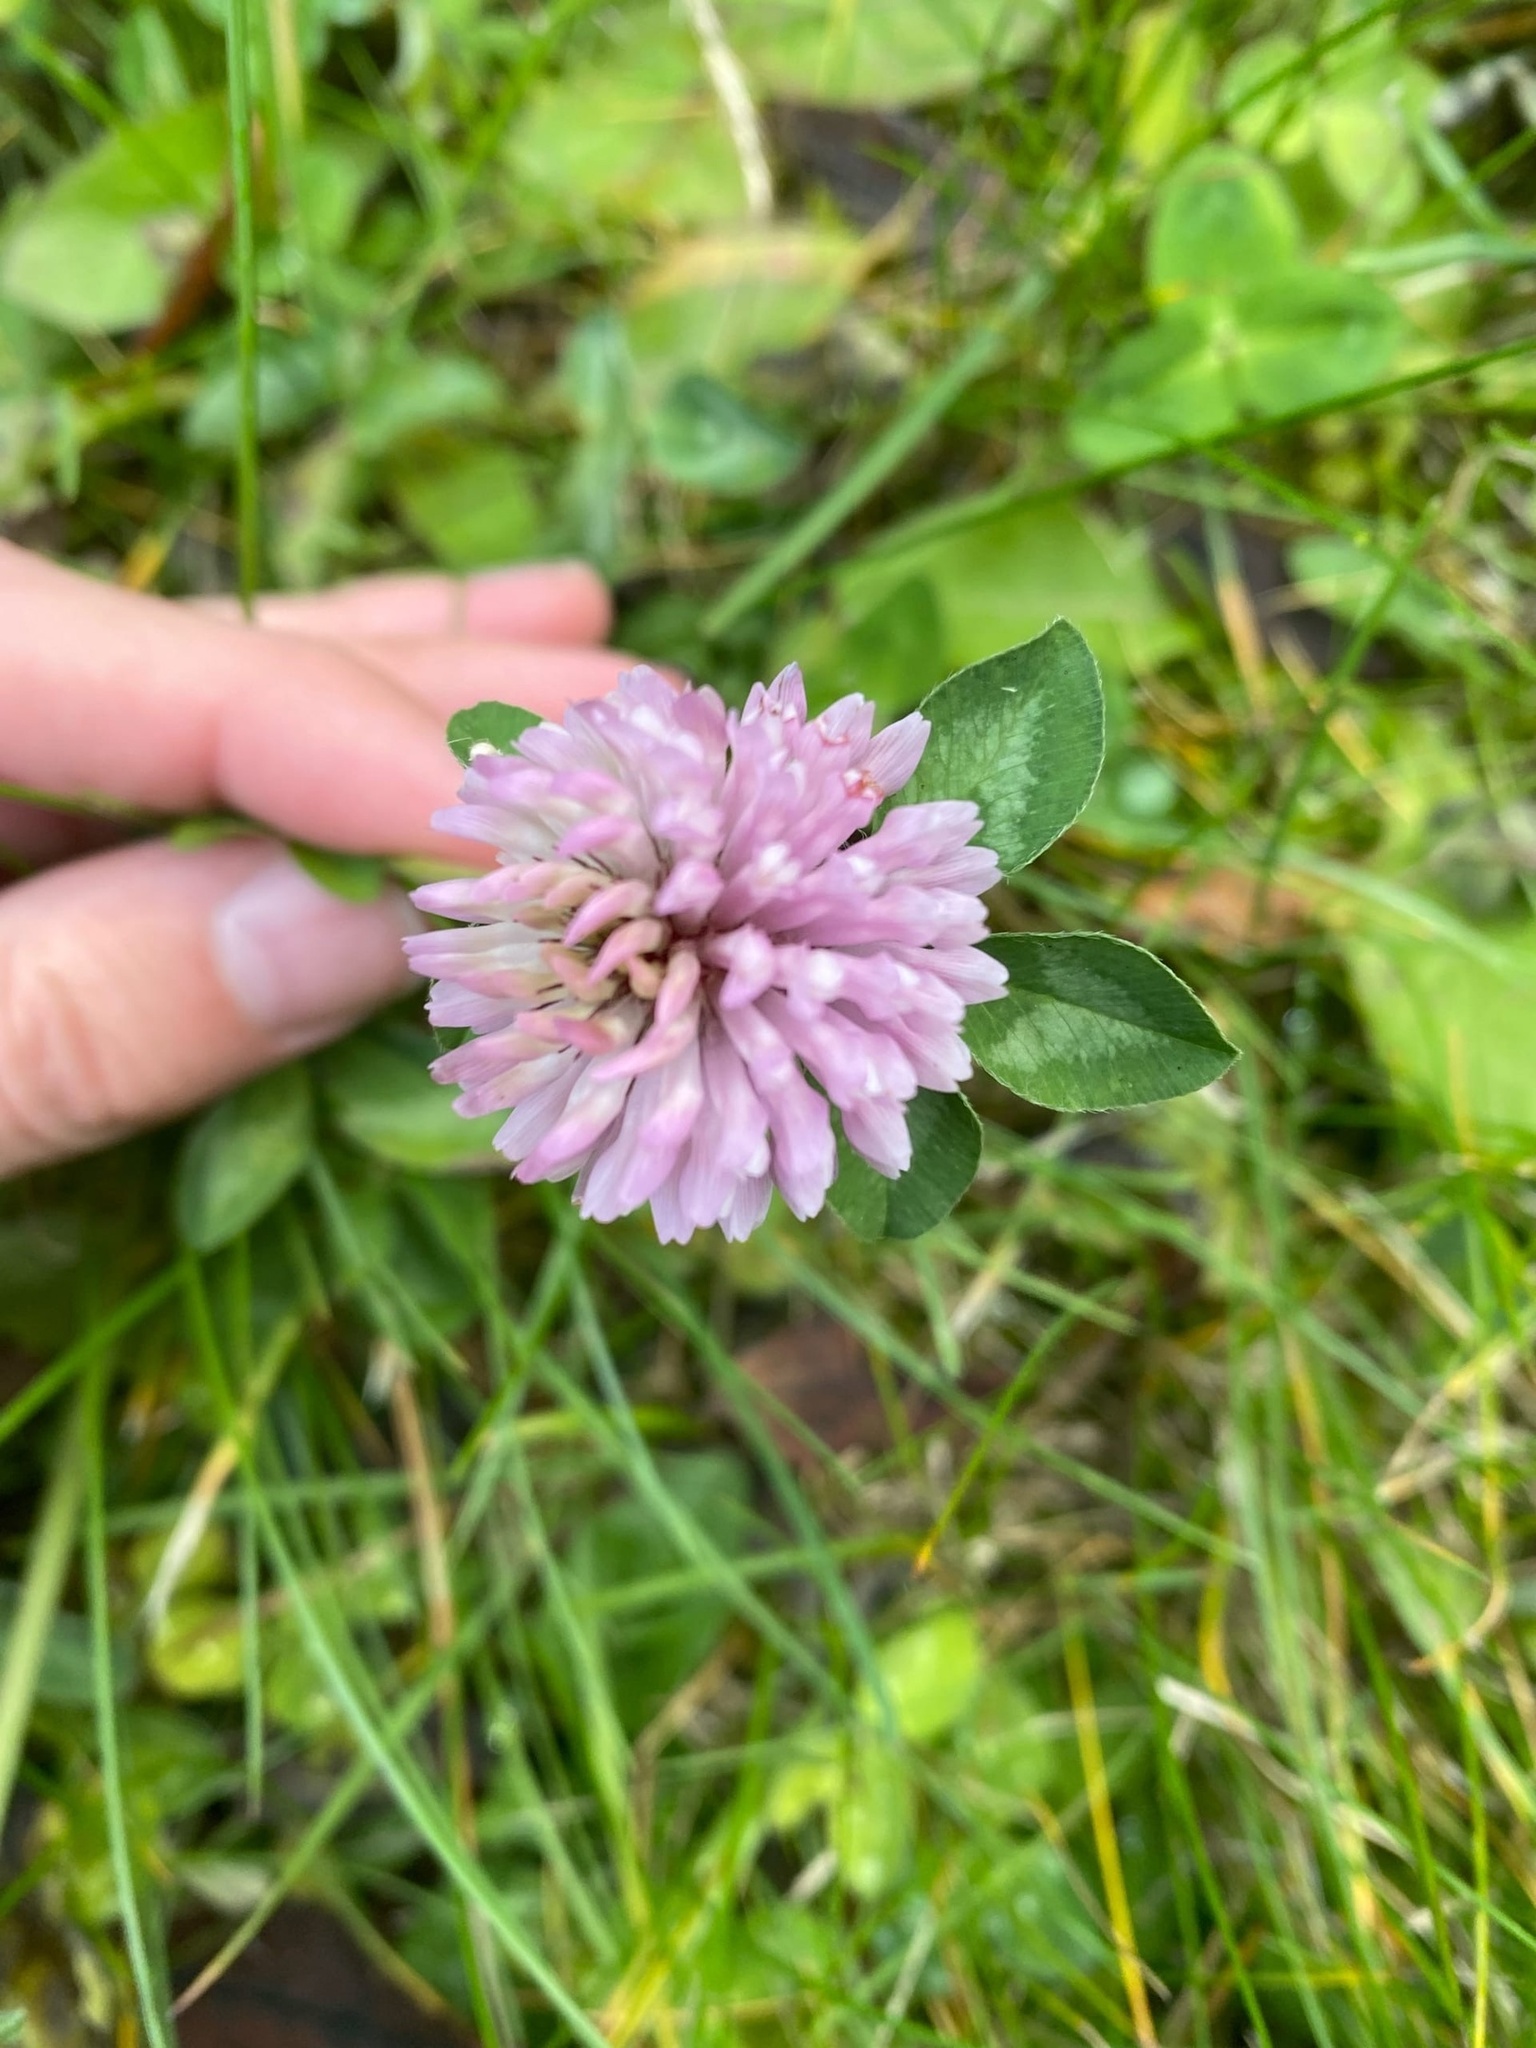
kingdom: Plantae
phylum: Tracheophyta
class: Magnoliopsida
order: Fabales
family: Fabaceae
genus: Trifolium
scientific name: Trifolium pratense
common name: Red clover
